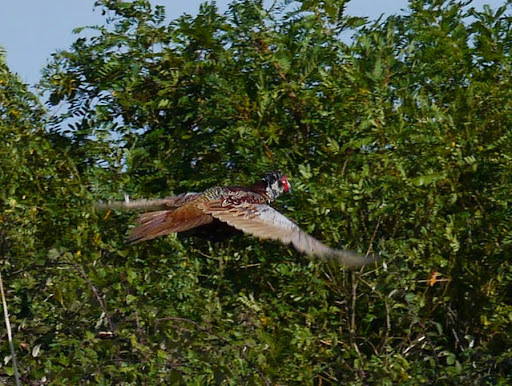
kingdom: Animalia
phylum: Chordata
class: Aves
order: Galliformes
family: Phasianidae
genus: Phasianus
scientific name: Phasianus colchicus
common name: Common pheasant
